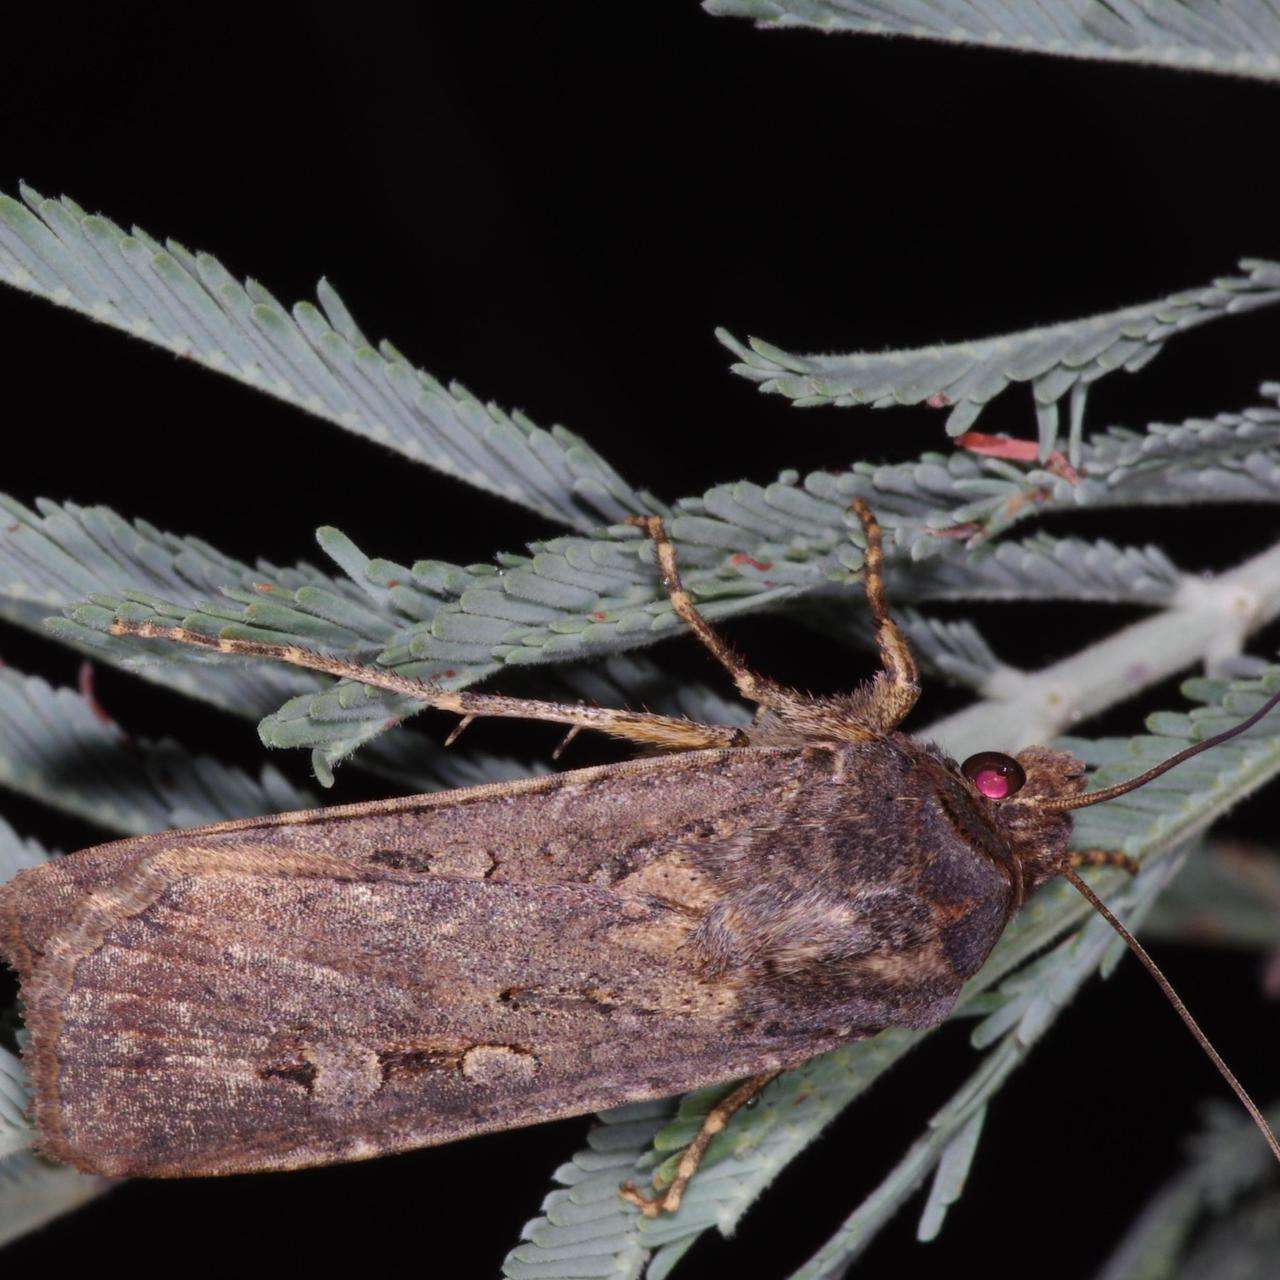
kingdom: Animalia
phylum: Arthropoda
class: Insecta
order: Lepidoptera
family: Noctuidae
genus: Agrotis
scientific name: Agrotis infusa
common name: Bogong moth
